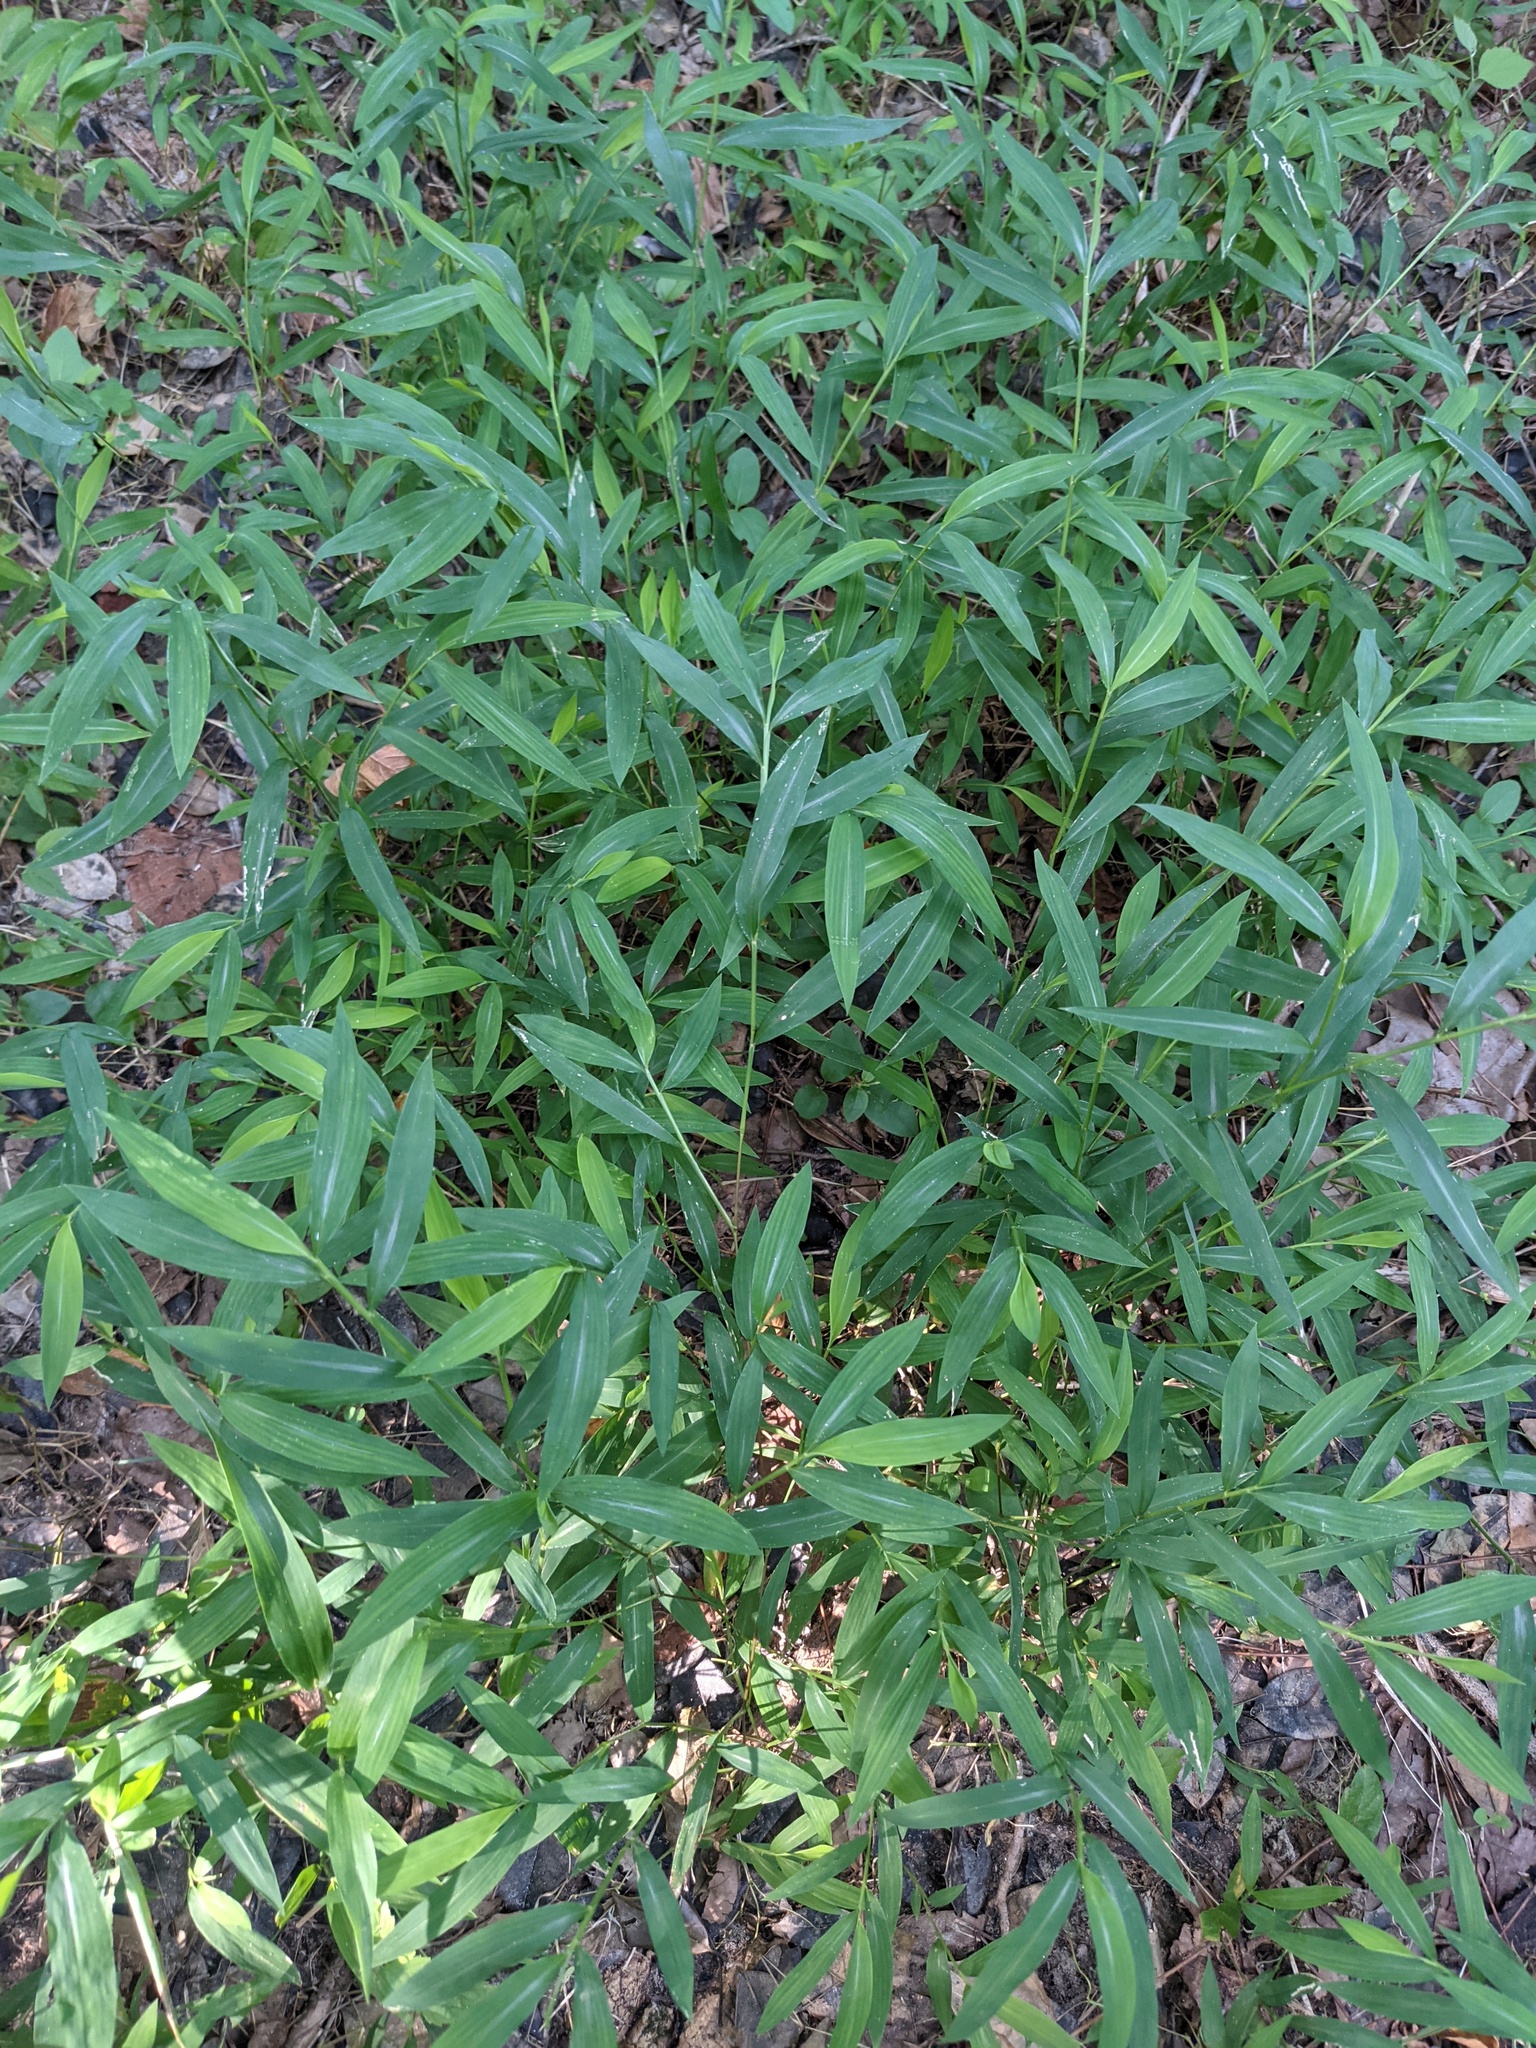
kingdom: Plantae
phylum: Tracheophyta
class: Liliopsida
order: Poales
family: Poaceae
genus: Microstegium
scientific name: Microstegium vimineum
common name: Japanese stiltgrass
